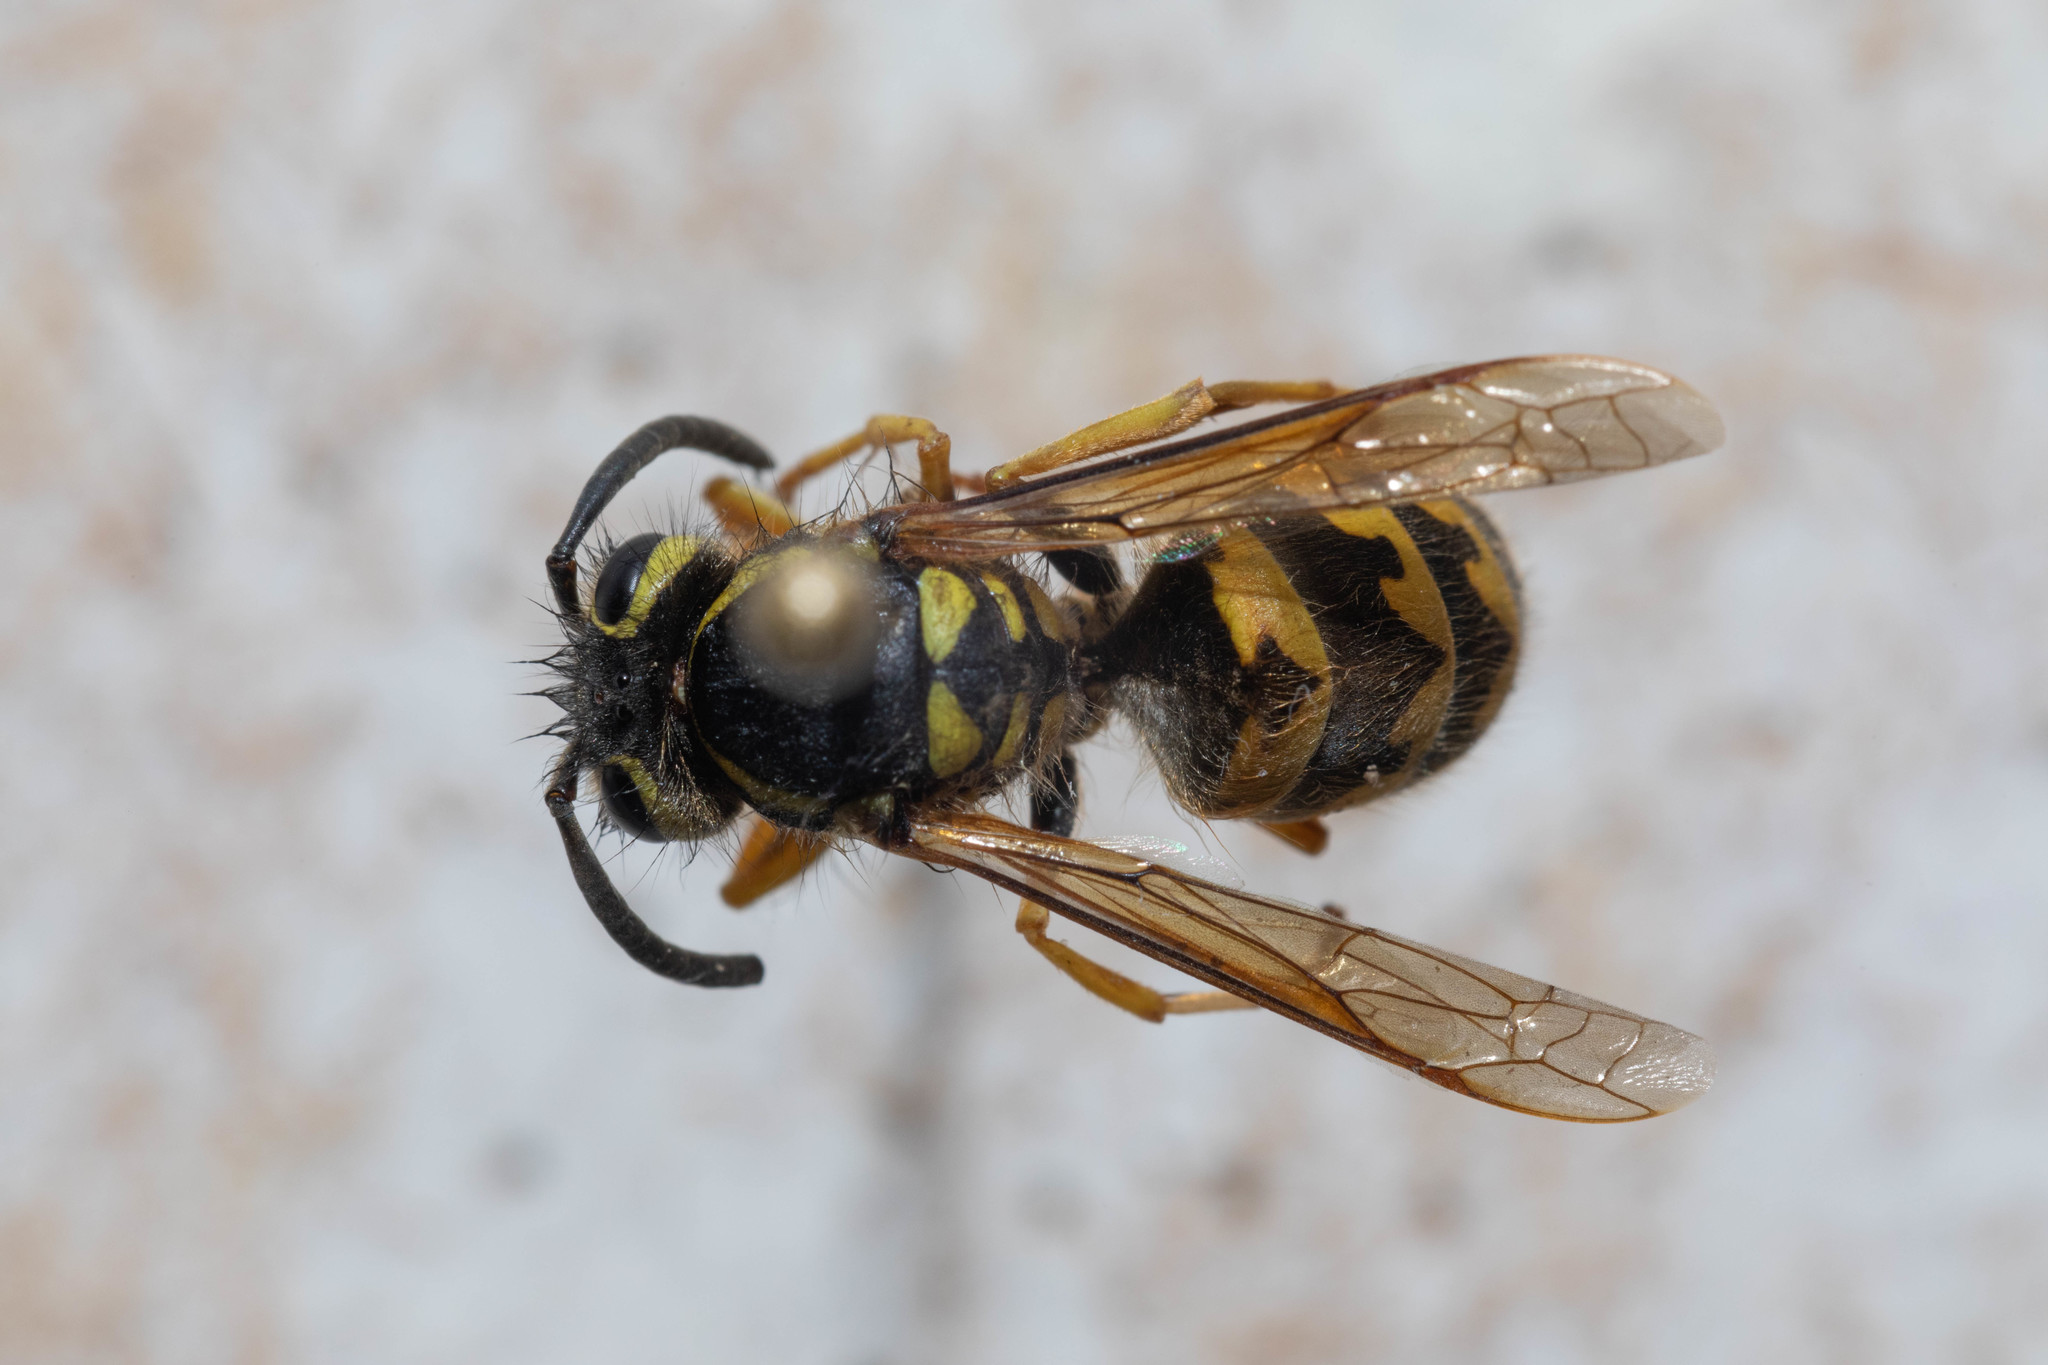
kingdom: Animalia
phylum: Arthropoda
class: Insecta
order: Hymenoptera
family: Vespidae
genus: Vespula
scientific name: Vespula pensylvanica
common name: Western yellowjacket
